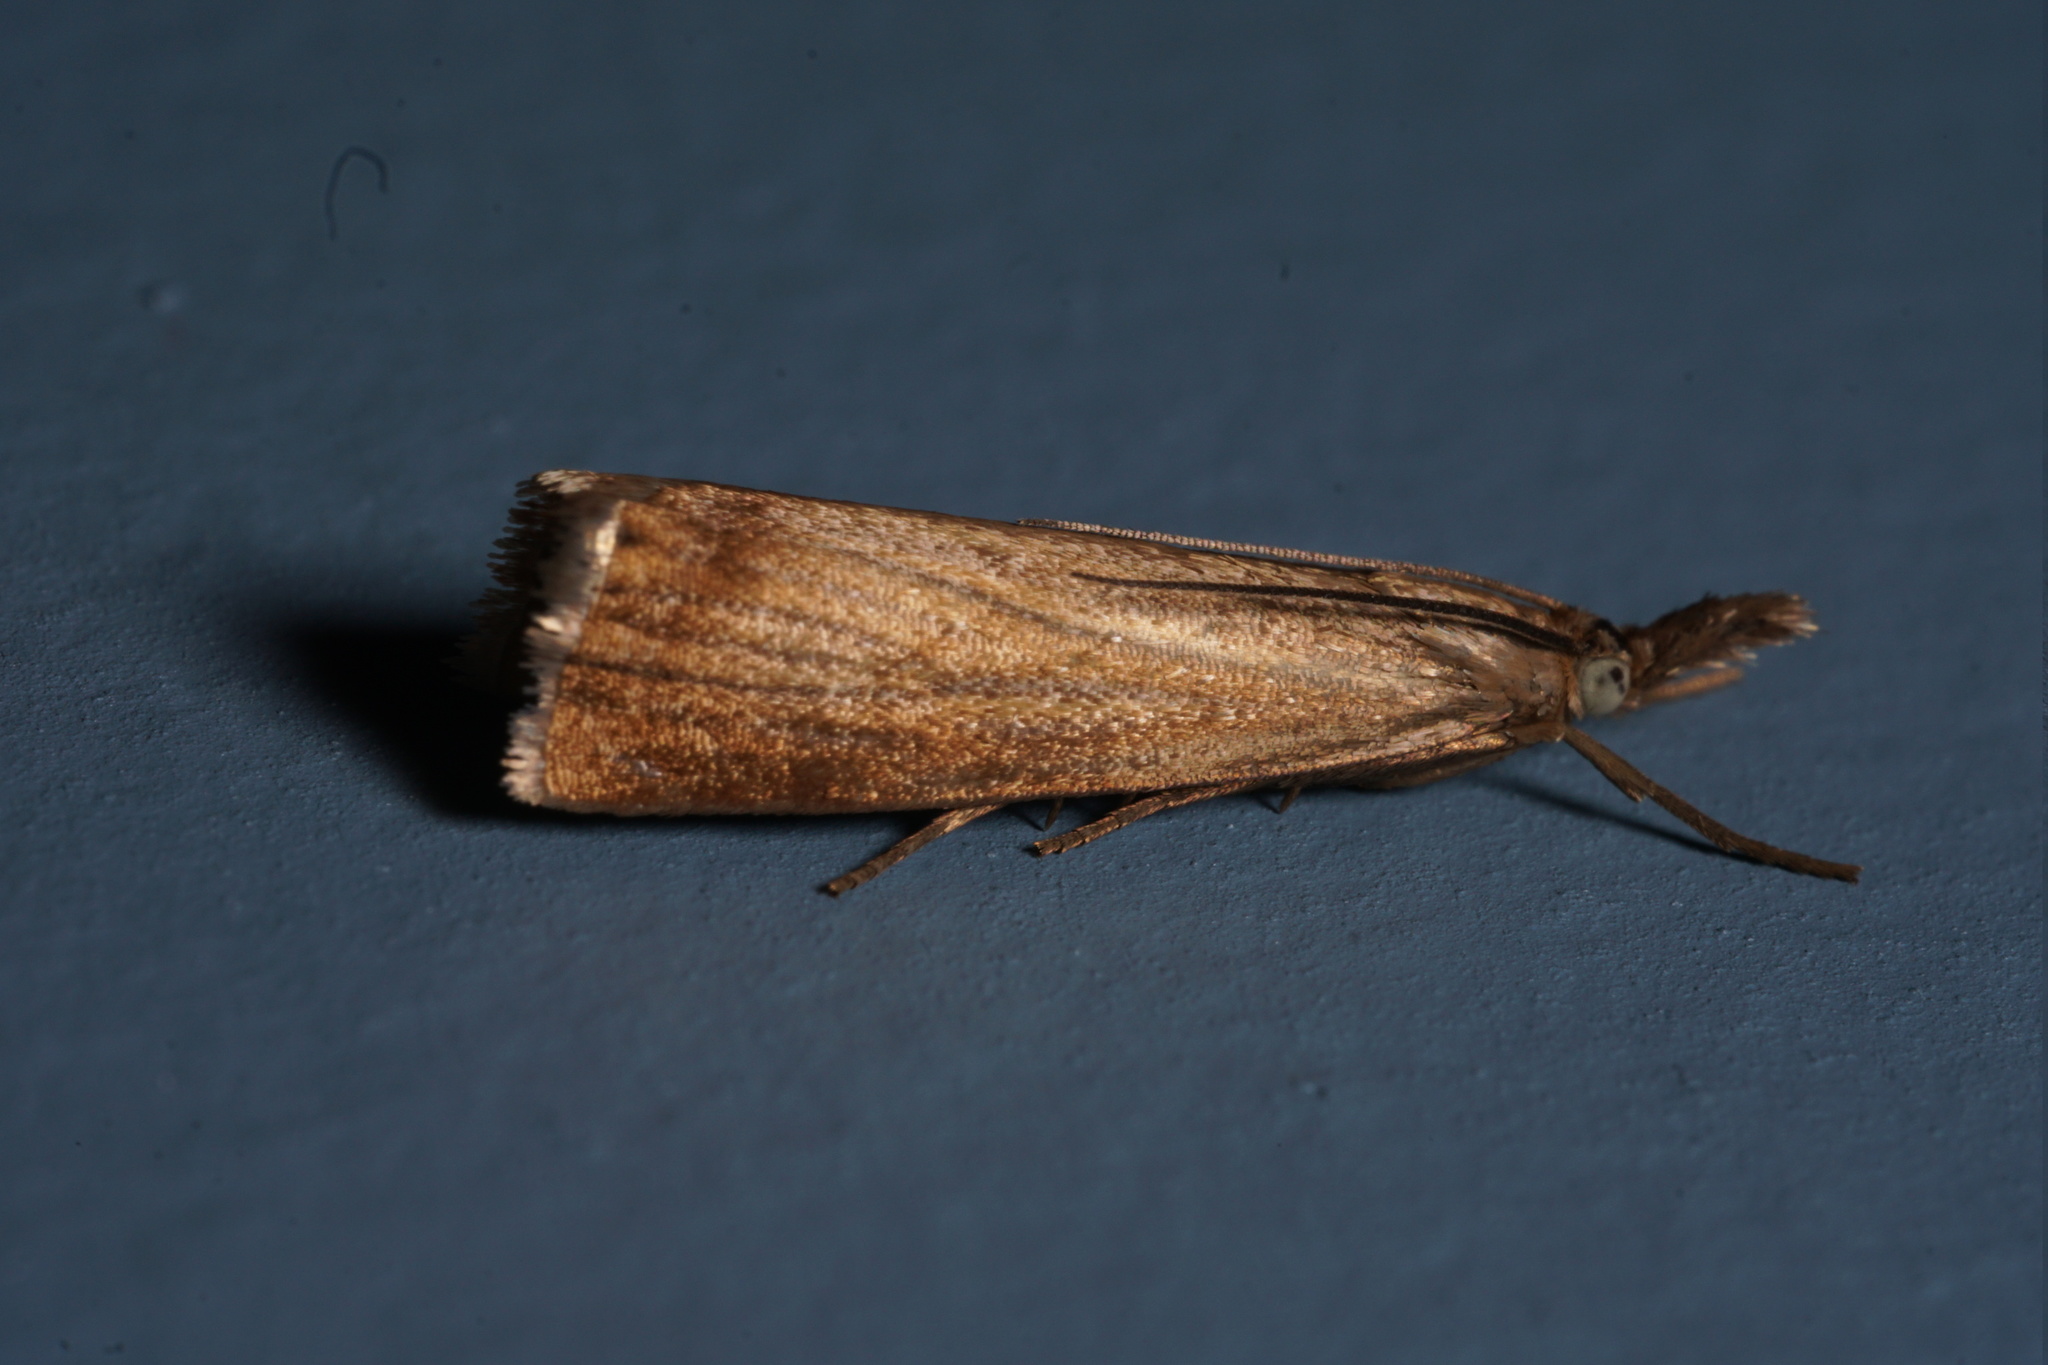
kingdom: Animalia
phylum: Arthropoda
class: Insecta
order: Lepidoptera
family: Crambidae
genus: Chrysoteuchia
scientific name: Chrysoteuchia culmella
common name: Garden grass-veneer
